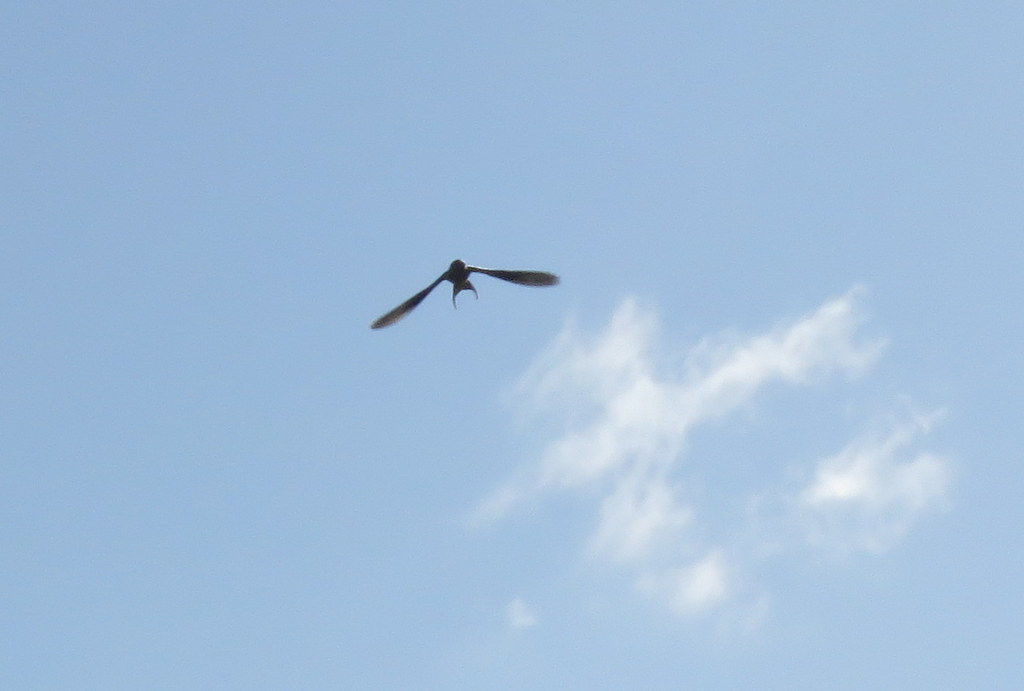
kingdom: Animalia
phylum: Chordata
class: Aves
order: Passeriformes
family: Hirundinidae
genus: Hirundo
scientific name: Hirundo rustica
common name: Barn swallow
